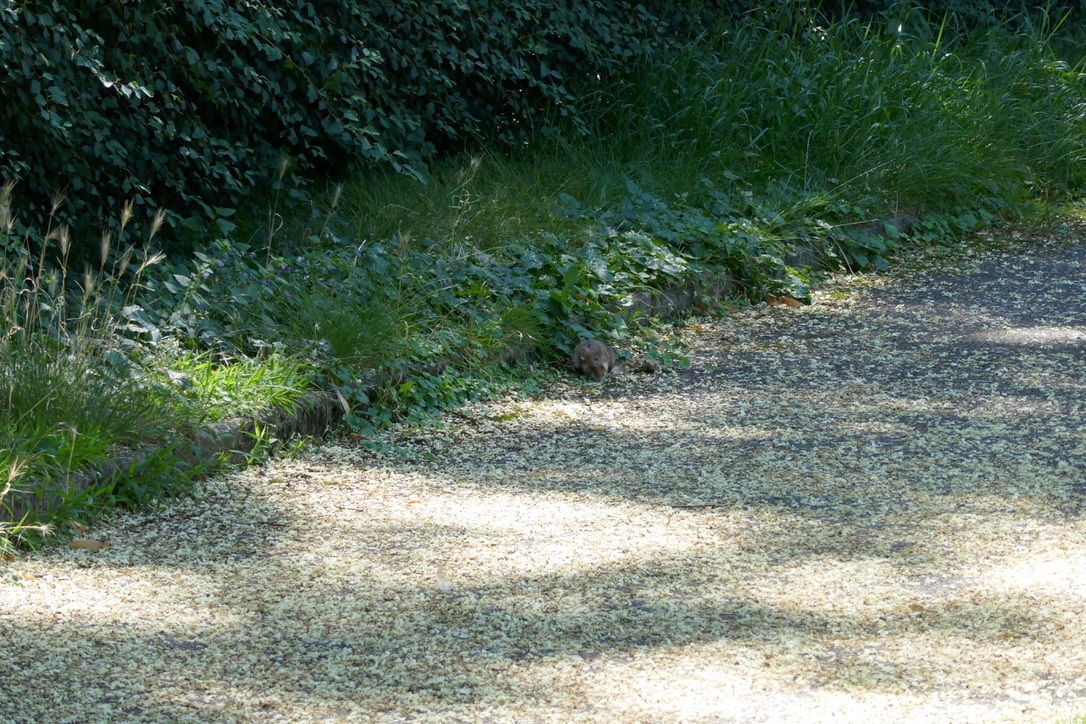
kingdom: Animalia
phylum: Chordata
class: Mammalia
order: Rodentia
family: Cricetidae
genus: Cricetus
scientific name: Cricetus cricetus
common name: Common hamster
